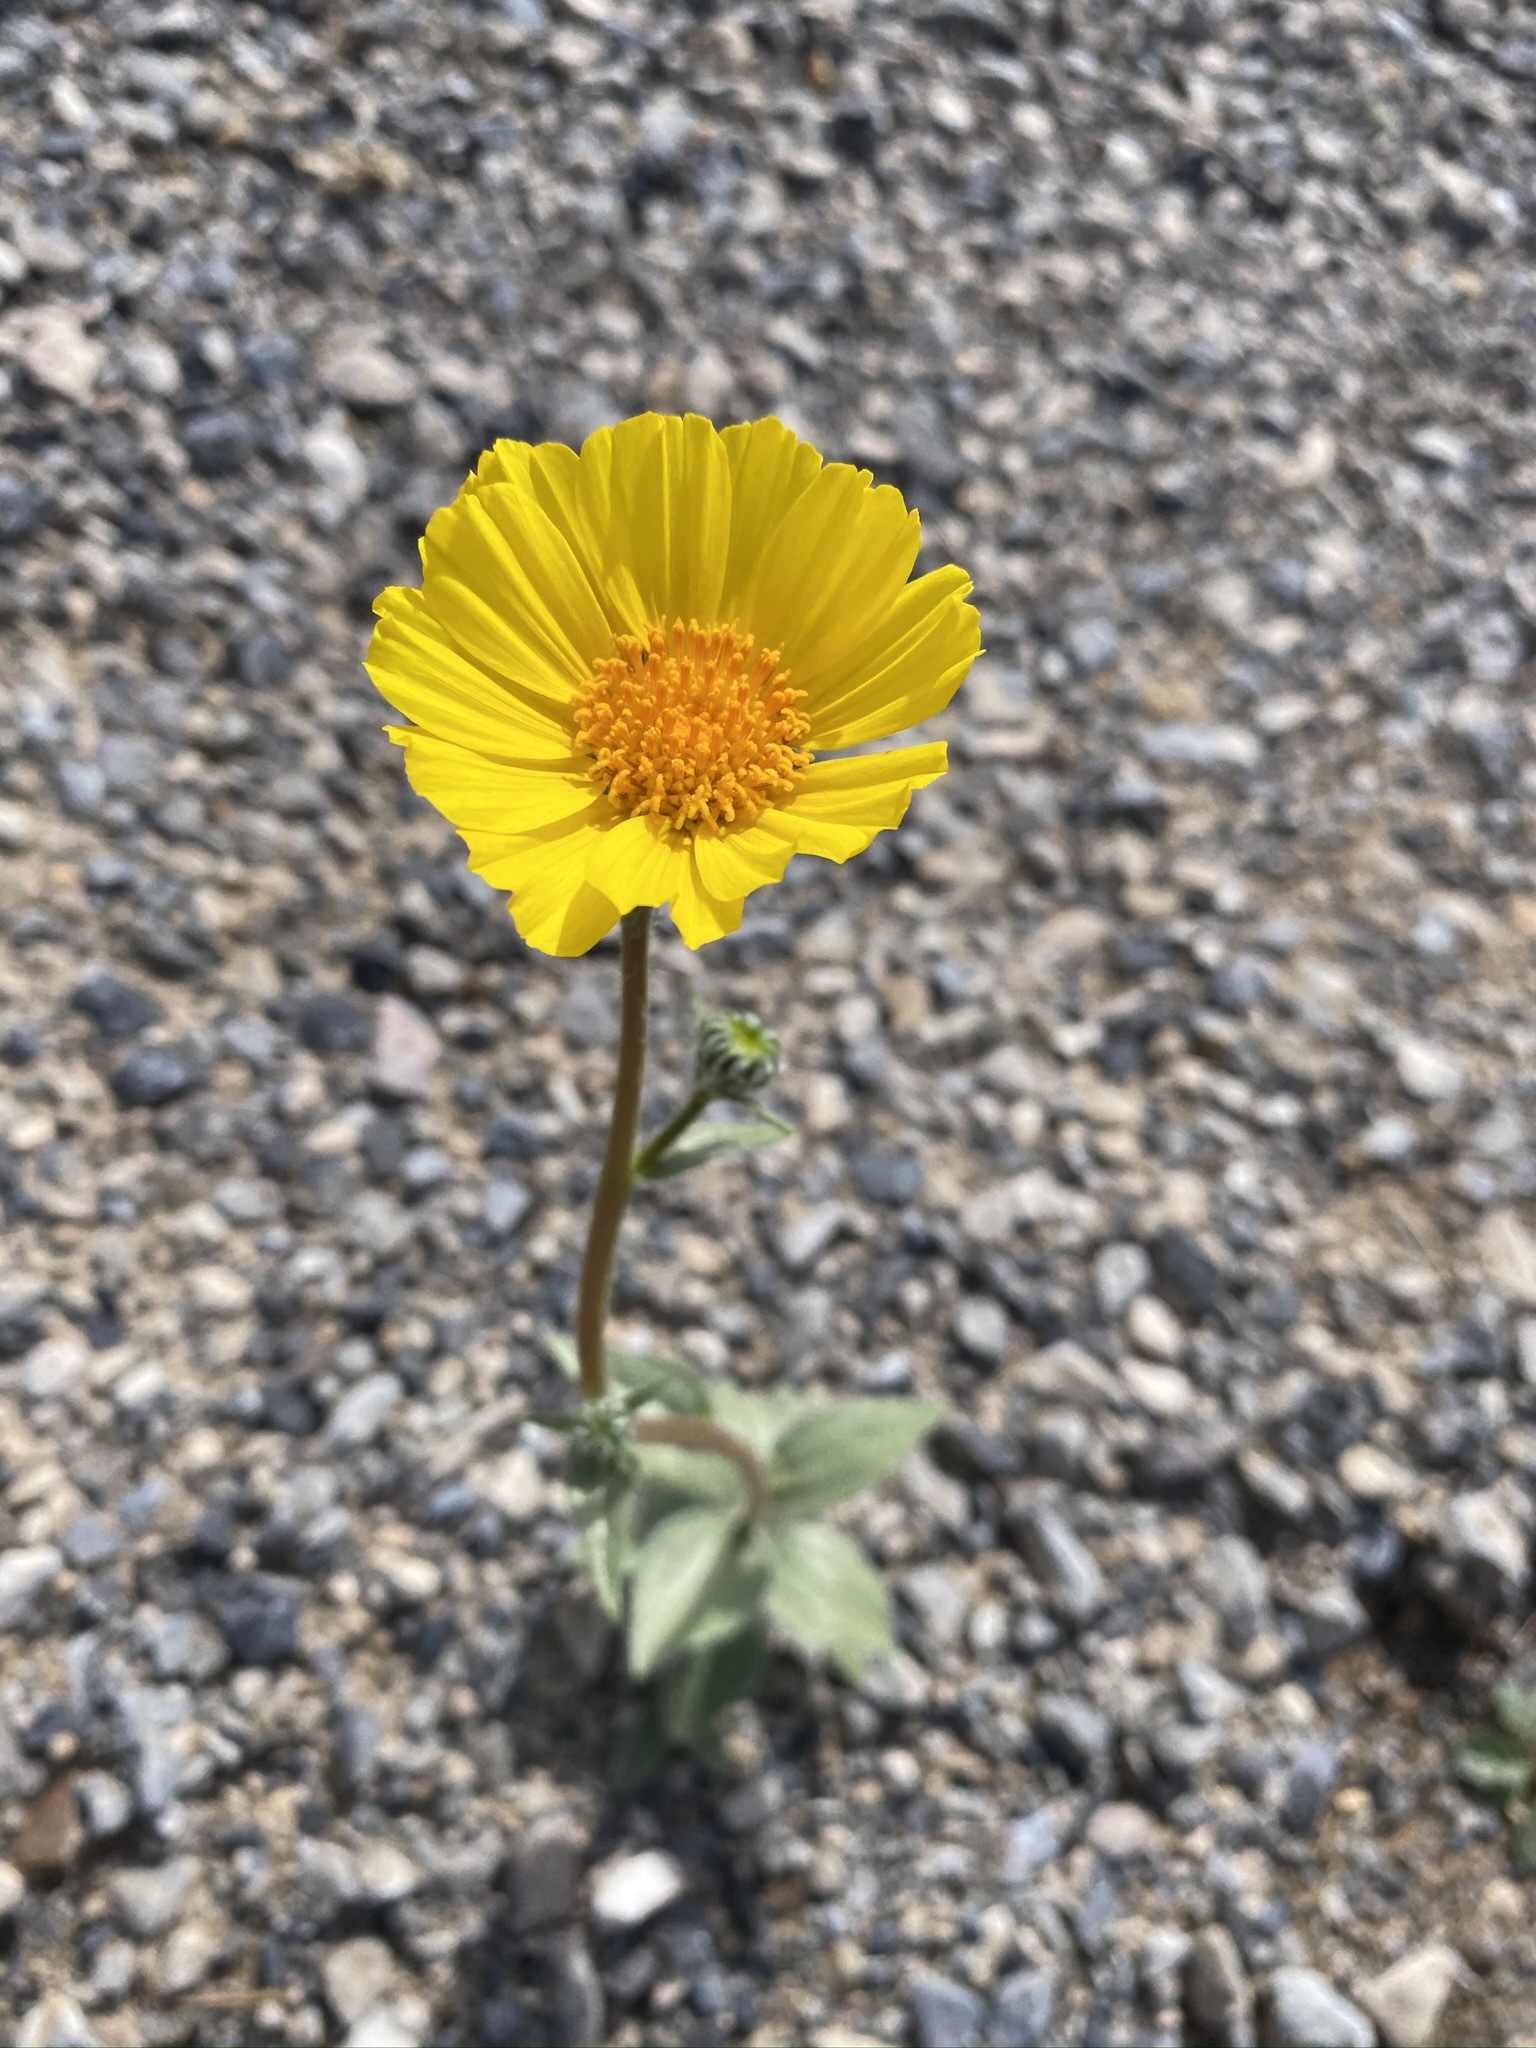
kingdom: Plantae
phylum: Tracheophyta
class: Magnoliopsida
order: Asterales
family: Asteraceae
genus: Geraea
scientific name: Geraea canescens
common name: Desert-gold
